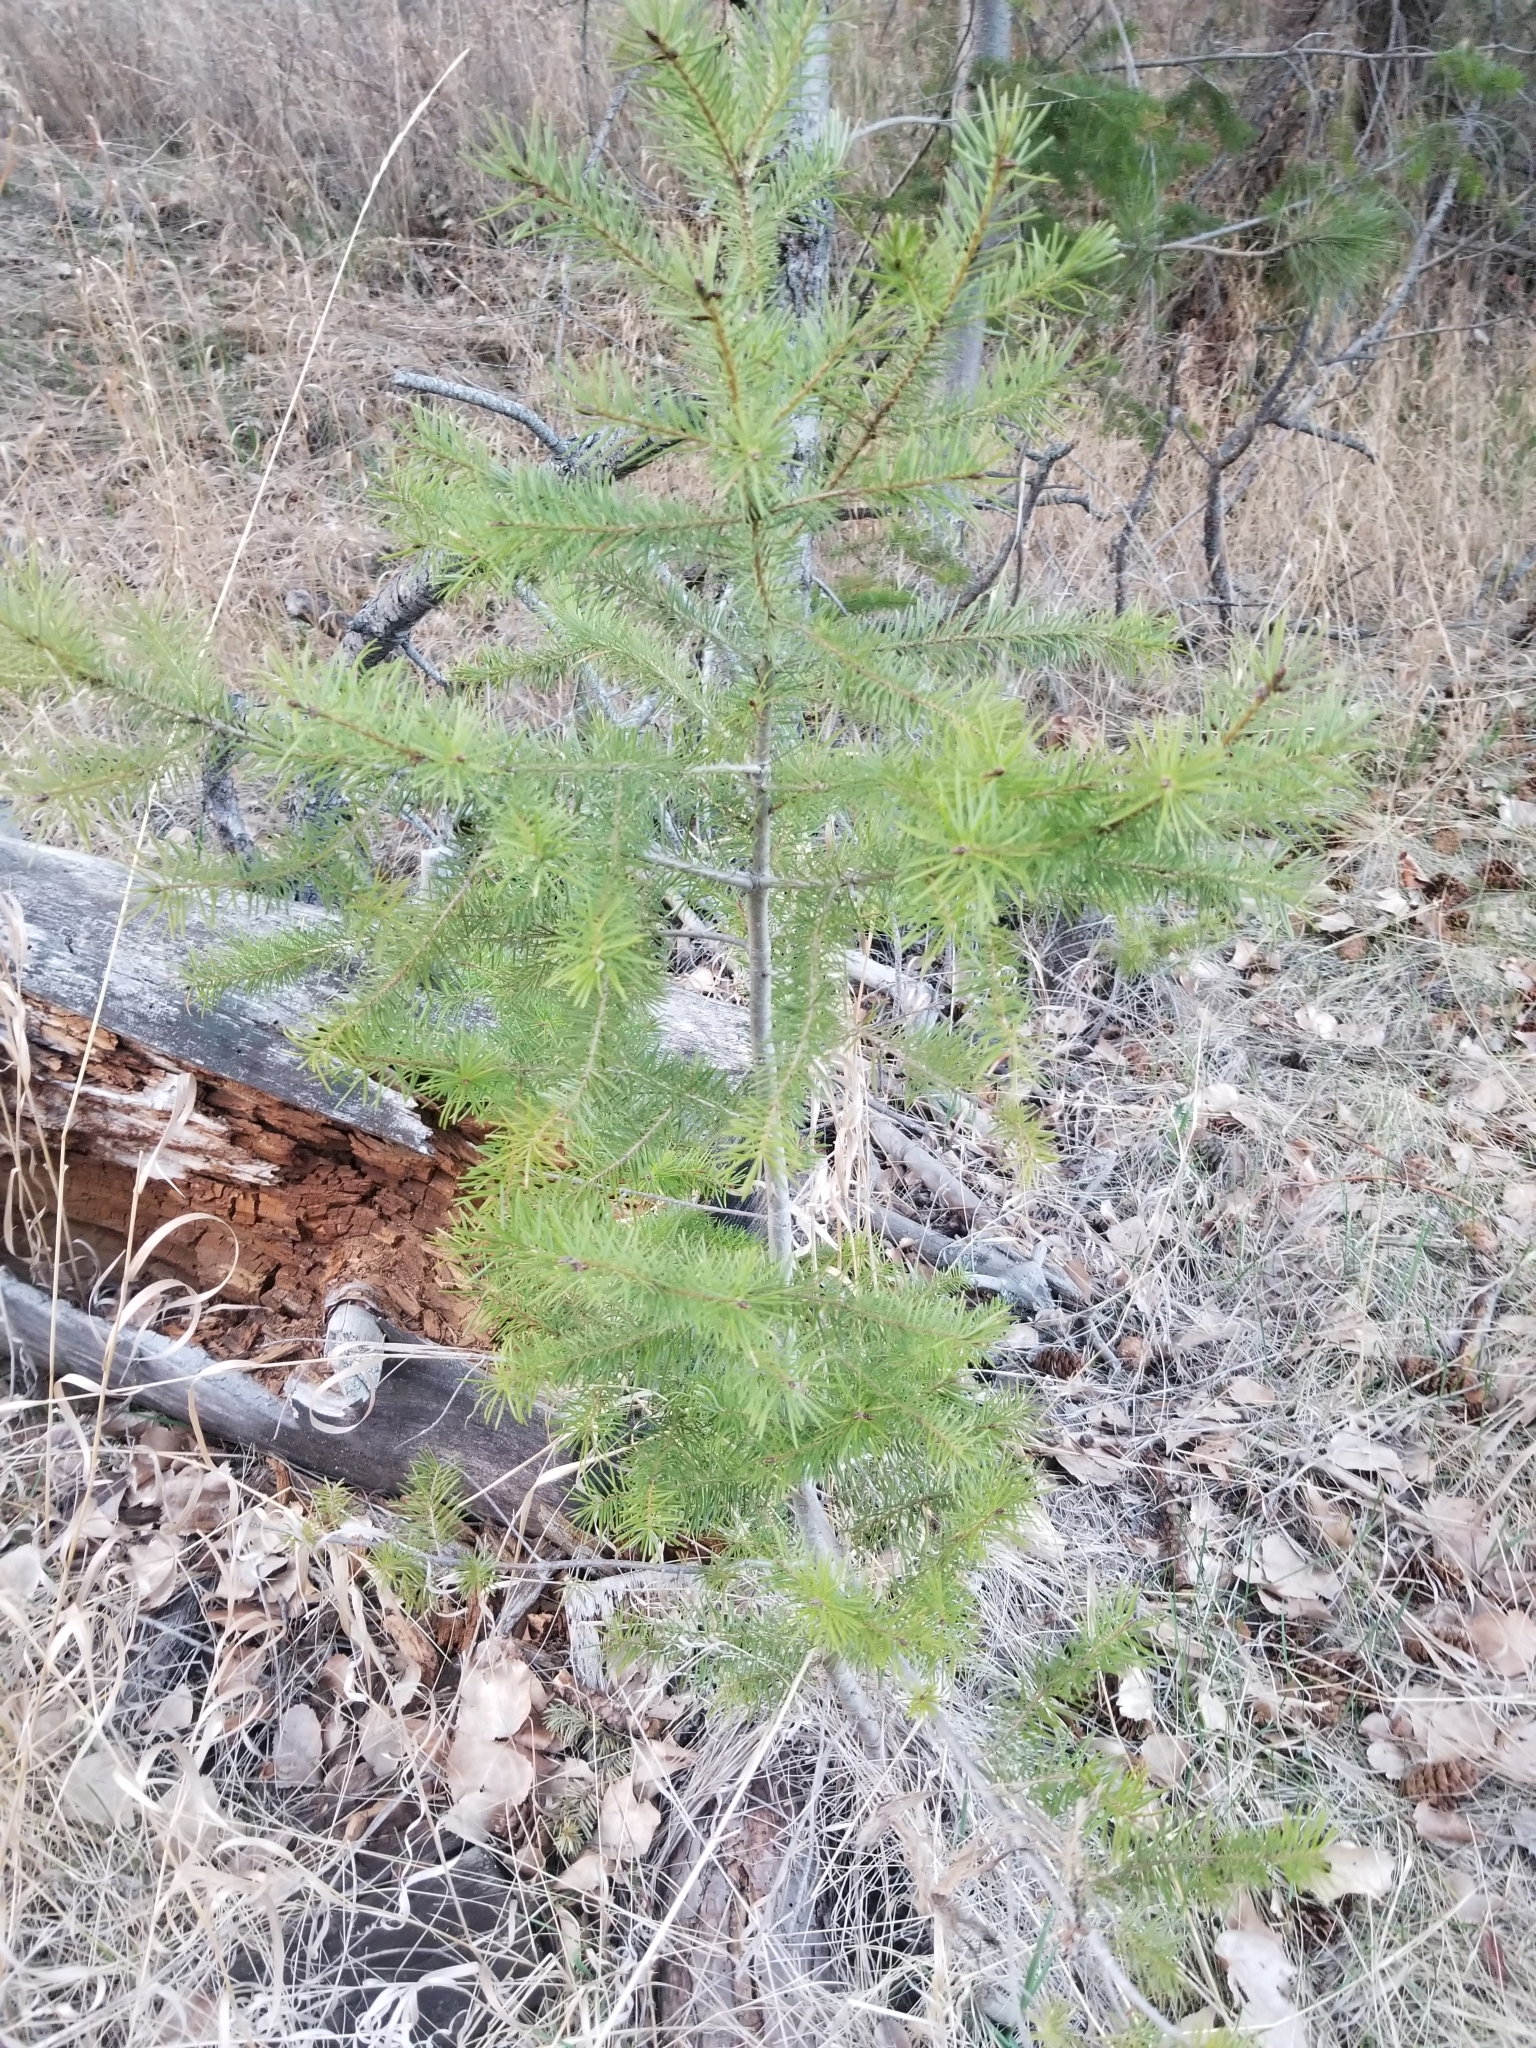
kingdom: Plantae
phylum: Tracheophyta
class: Pinopsida
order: Pinales
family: Pinaceae
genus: Pseudotsuga
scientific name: Pseudotsuga menziesii
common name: Douglas fir
